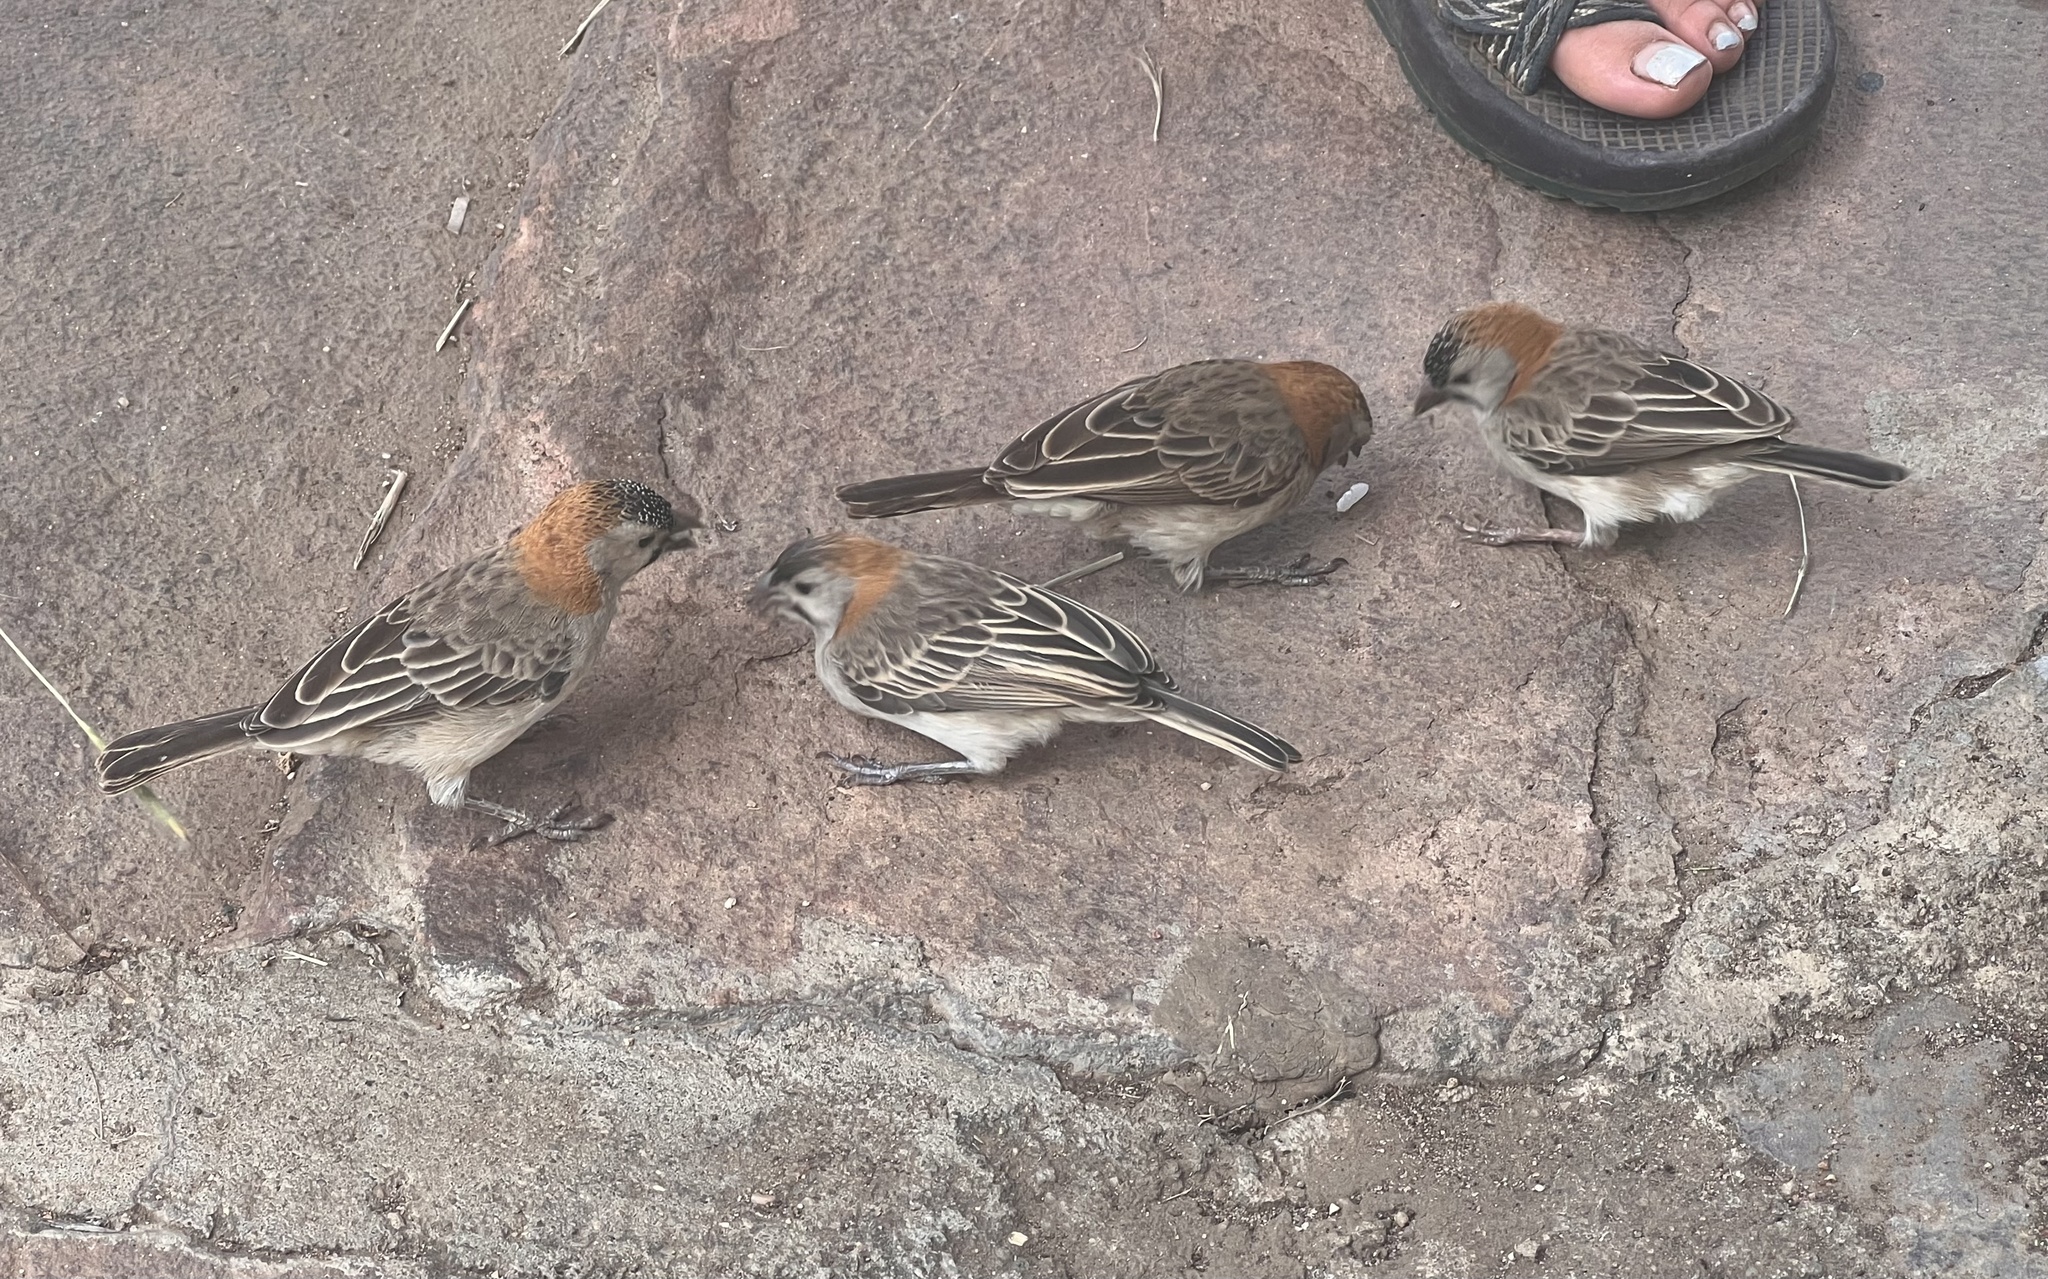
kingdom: Animalia
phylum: Chordata
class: Aves
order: Passeriformes
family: Ploceidae
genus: Sporopipes
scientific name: Sporopipes frontalis
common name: Speckle-fronted weaver
